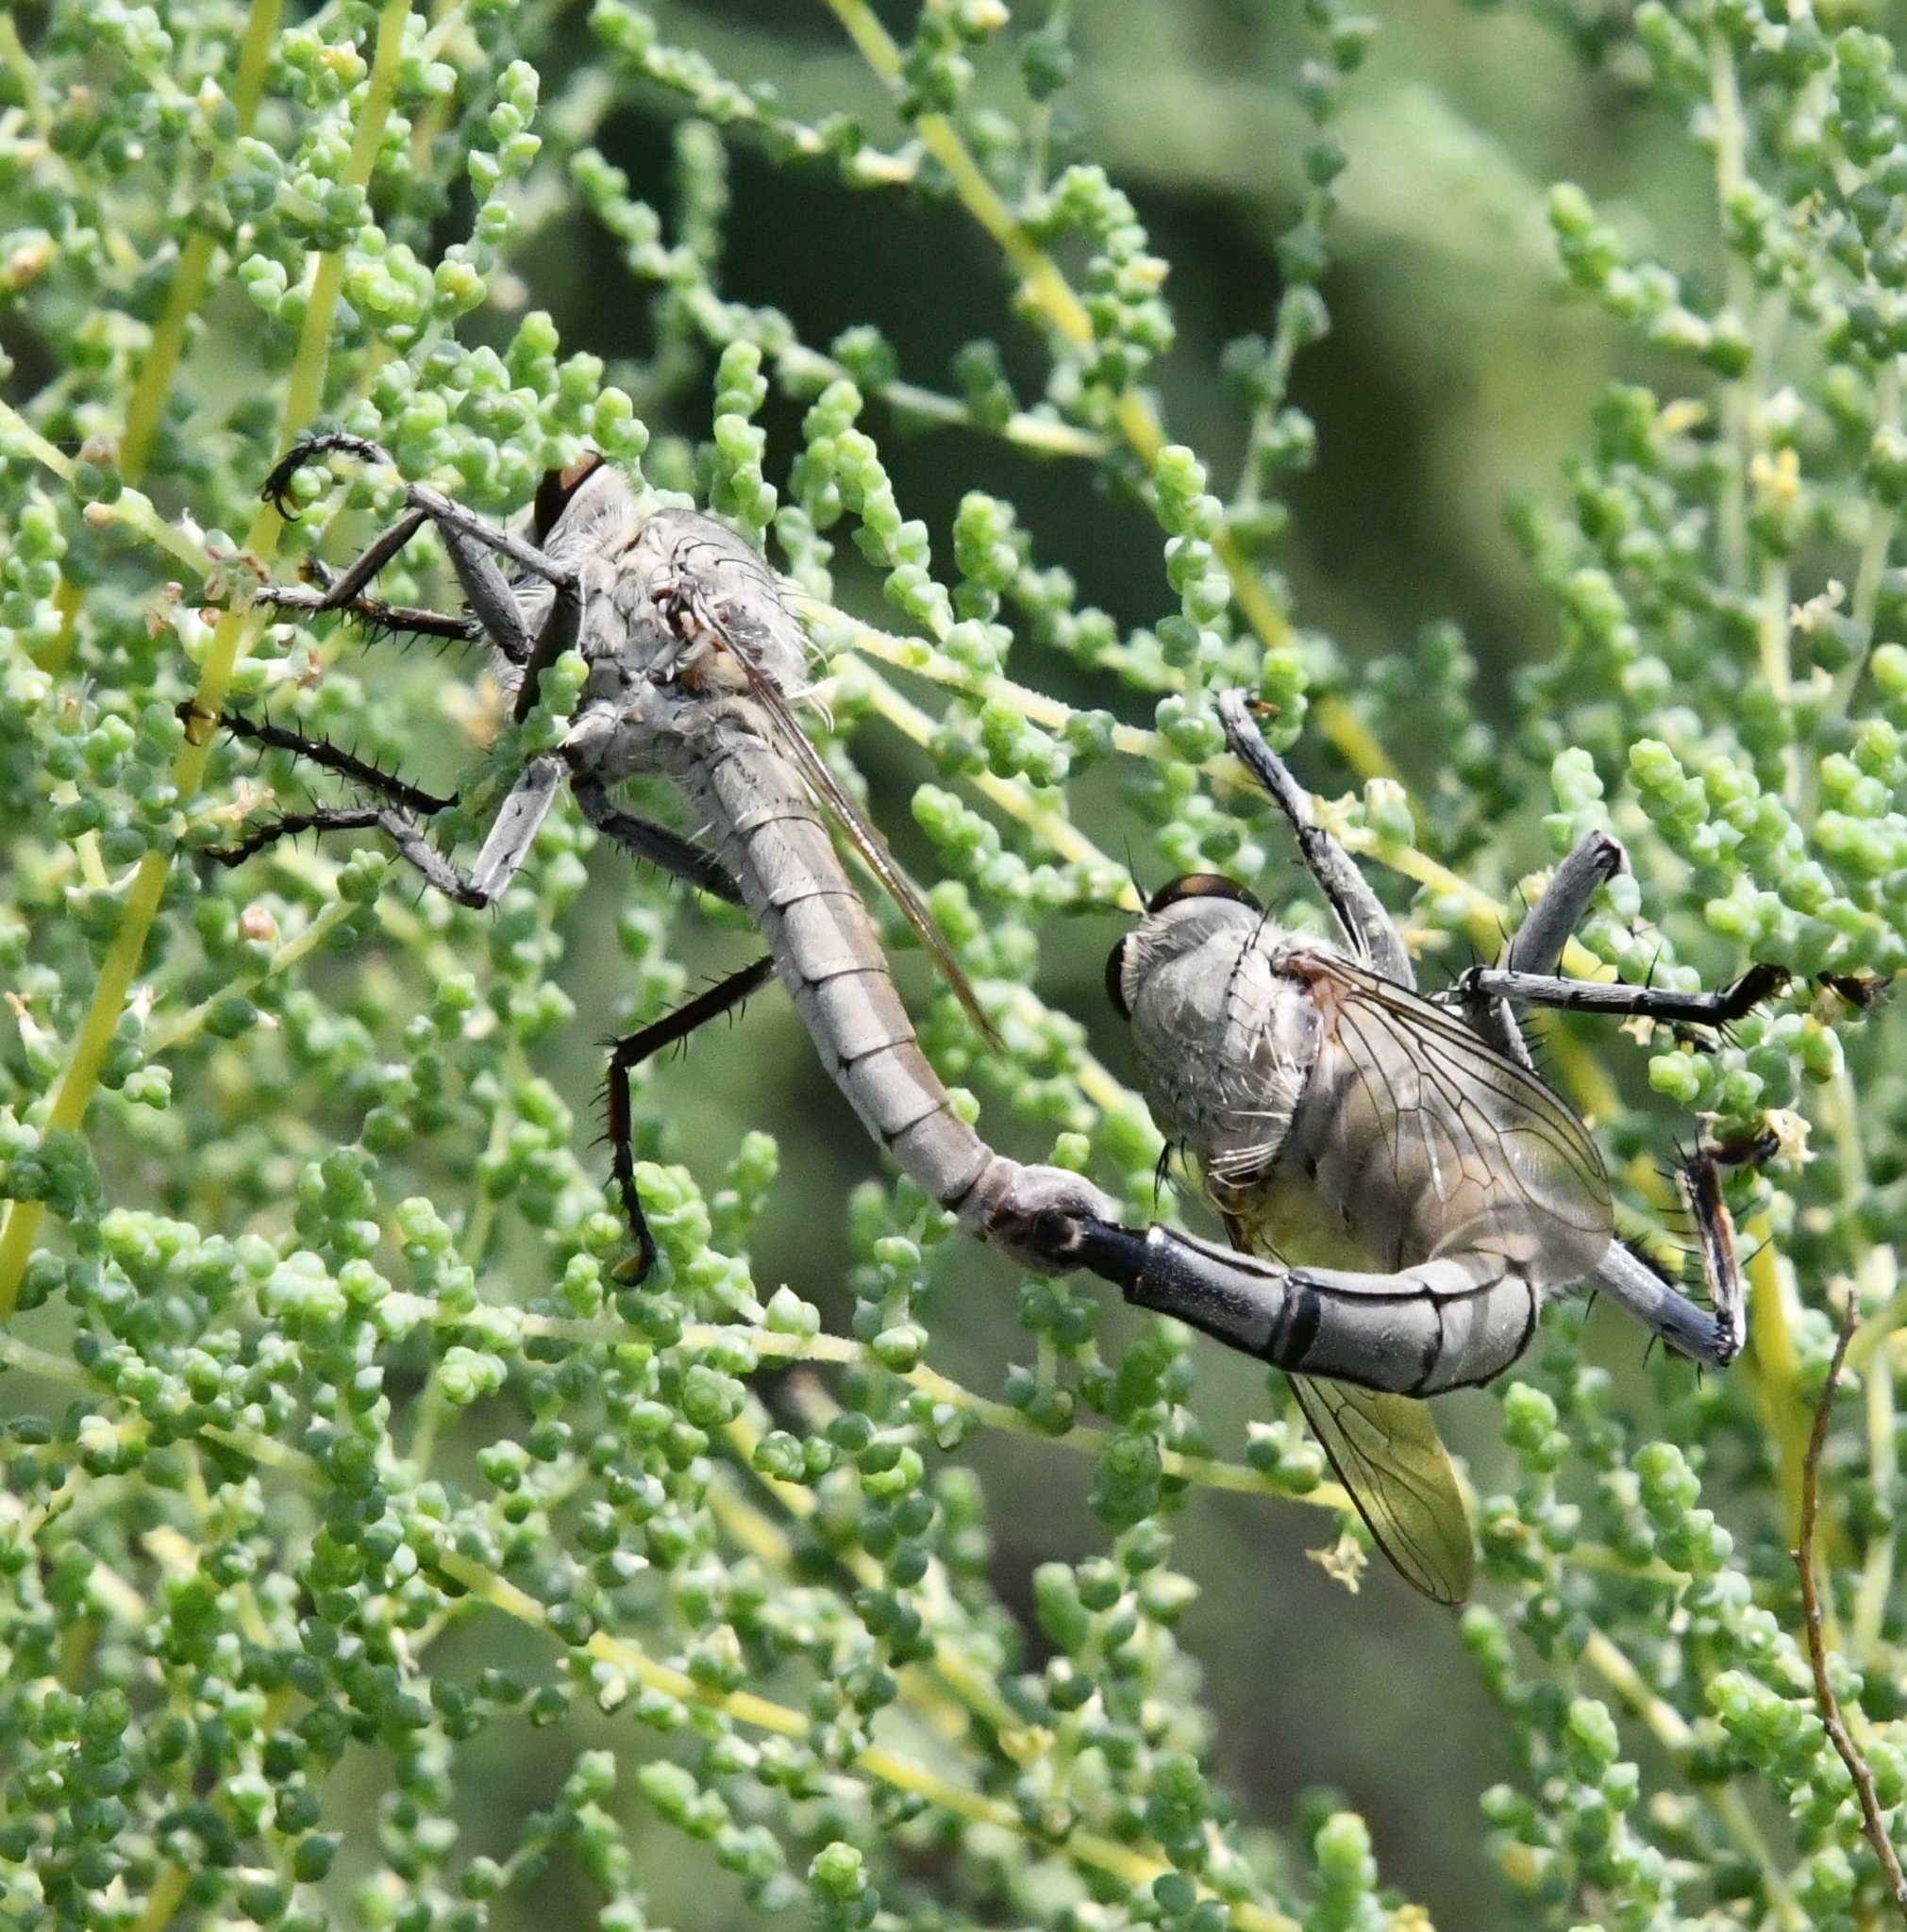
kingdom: Animalia
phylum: Arthropoda
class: Insecta
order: Diptera
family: Asilidae
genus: Satanas
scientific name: Satanas gigas
